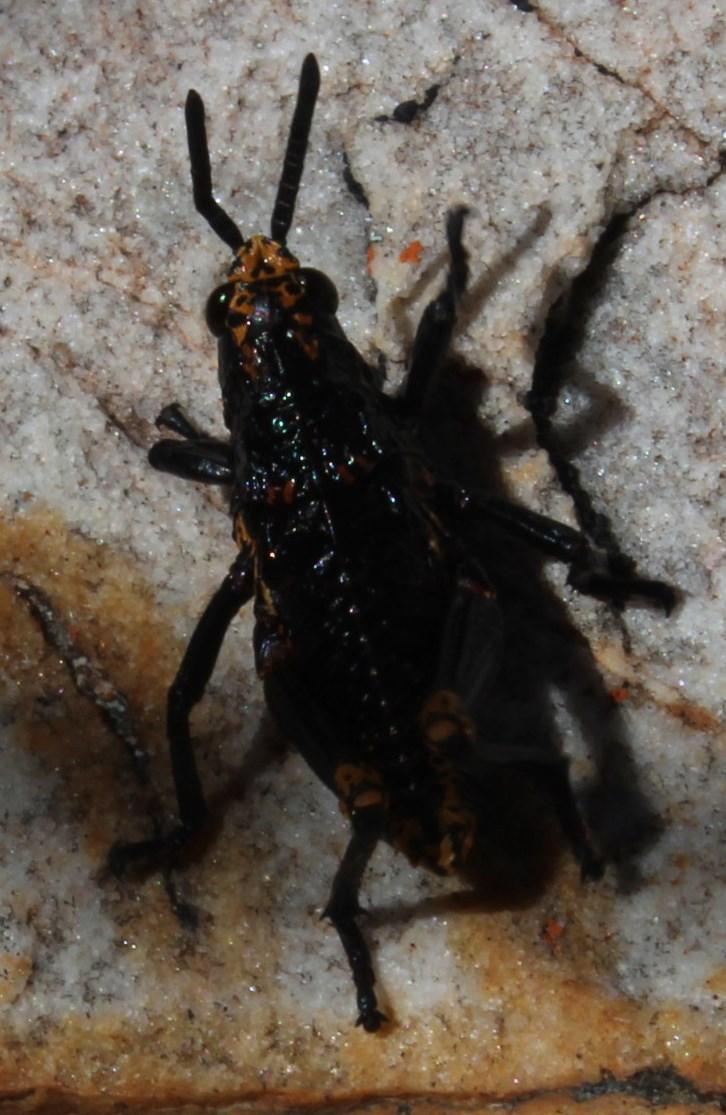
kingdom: Animalia
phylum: Arthropoda
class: Insecta
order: Orthoptera
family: Pyrgomorphidae
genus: Dictyophorus
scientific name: Dictyophorus spumans
